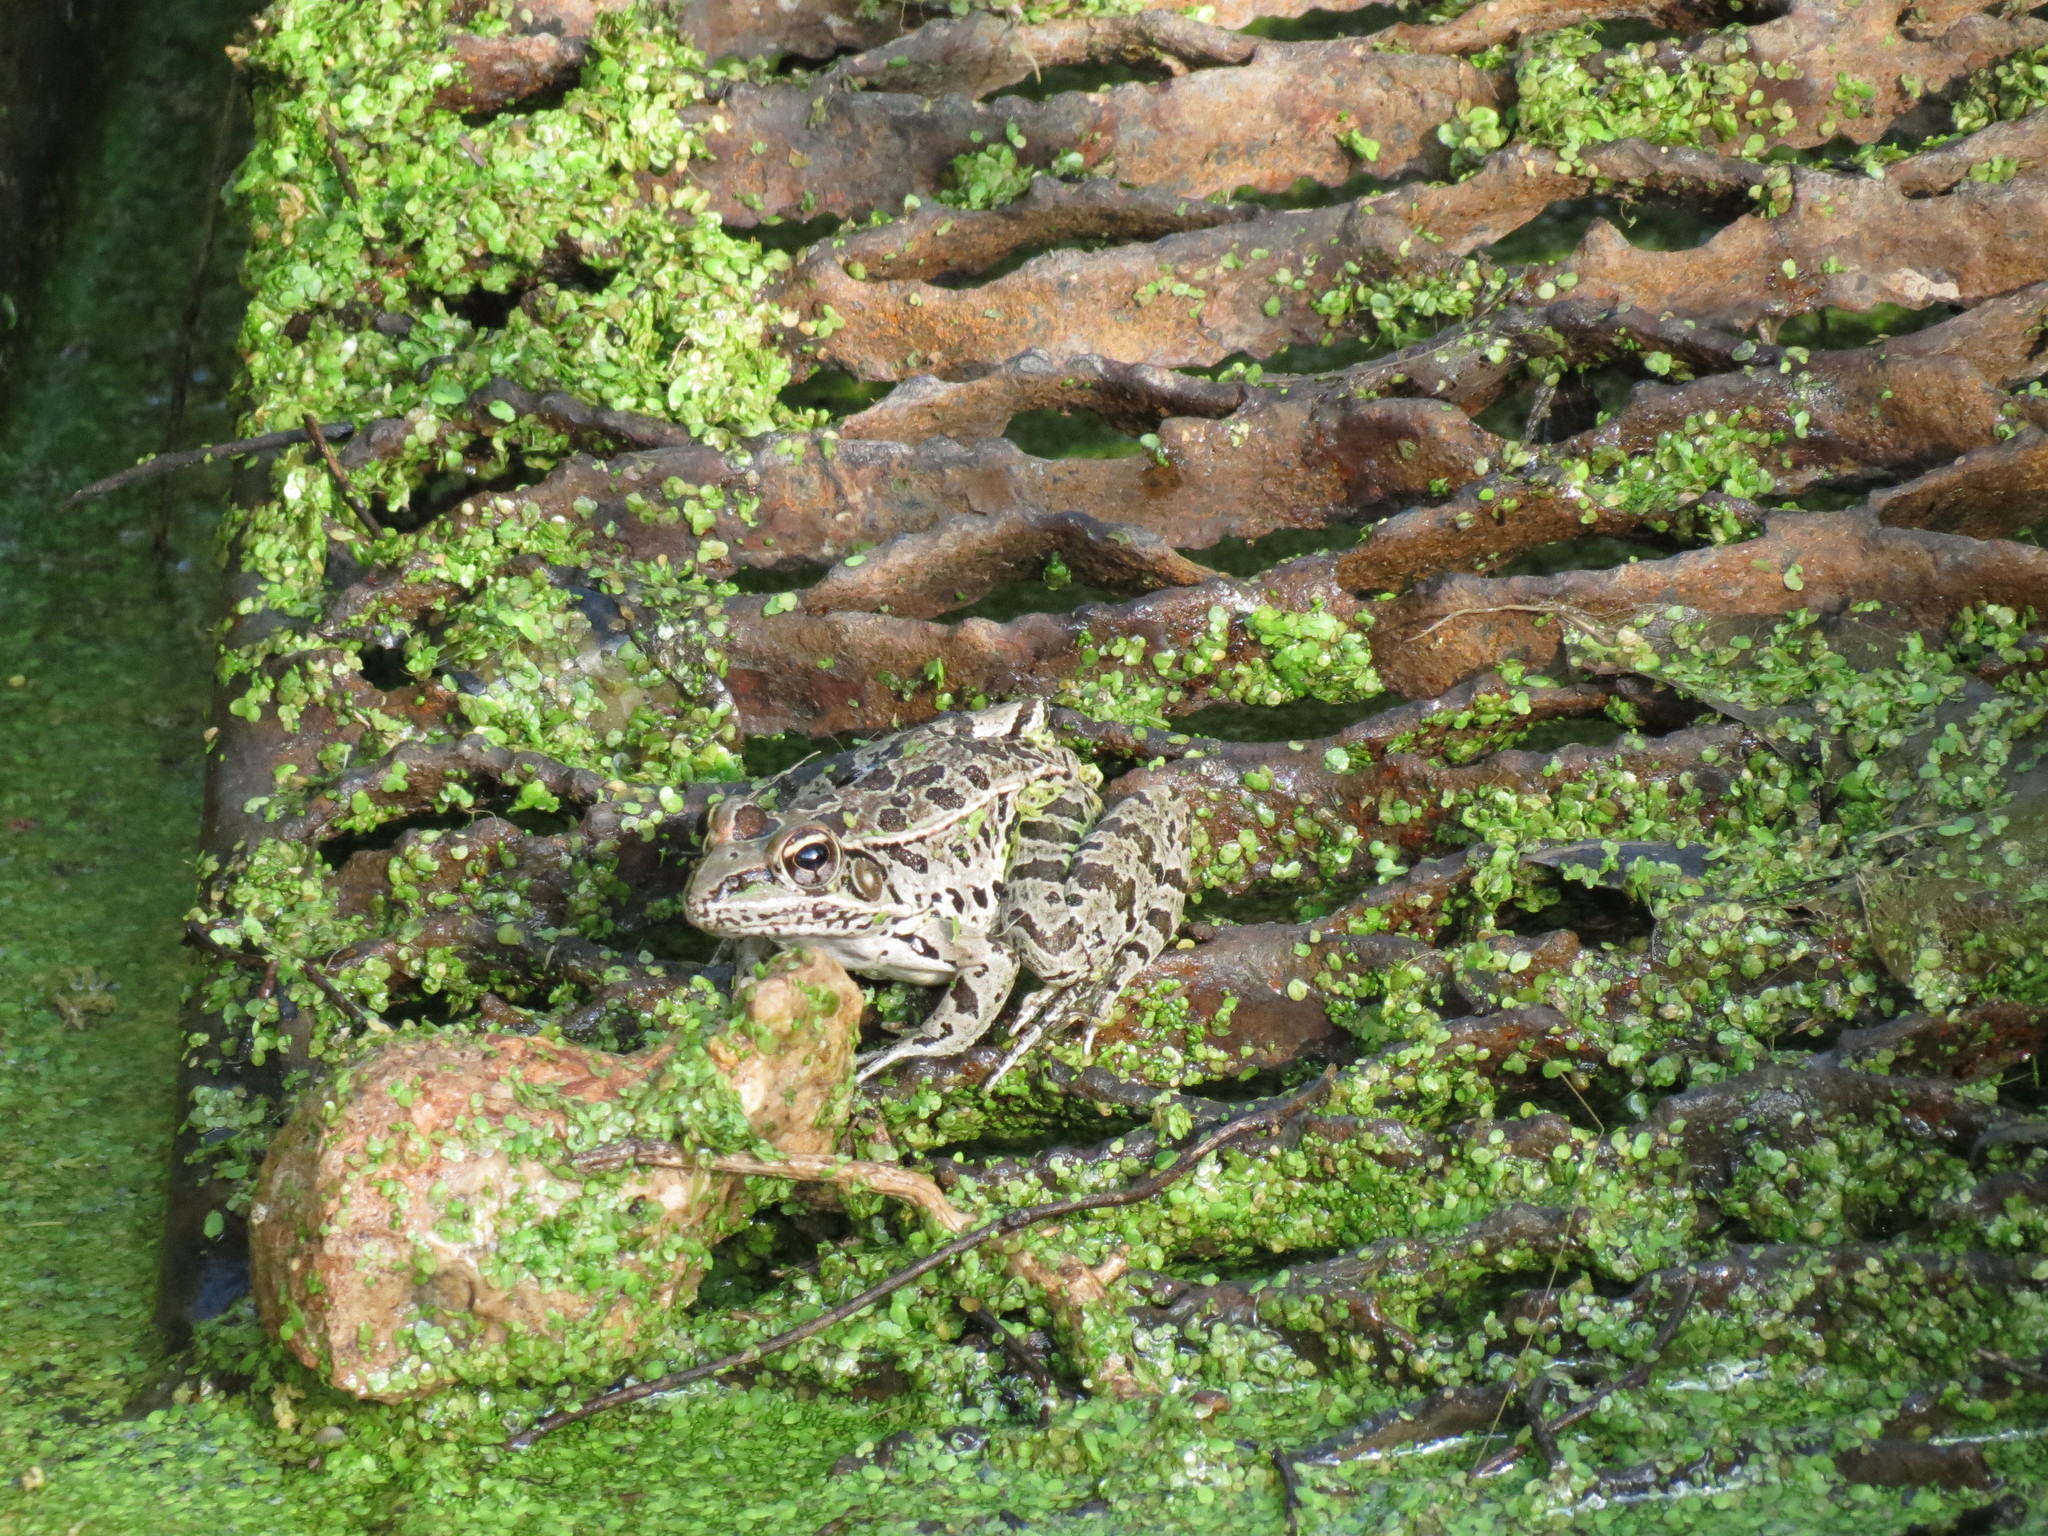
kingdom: Animalia
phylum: Chordata
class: Amphibia
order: Anura
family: Ranidae
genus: Lithobates
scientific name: Lithobates berlandieri
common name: Rio grande leopard frog
